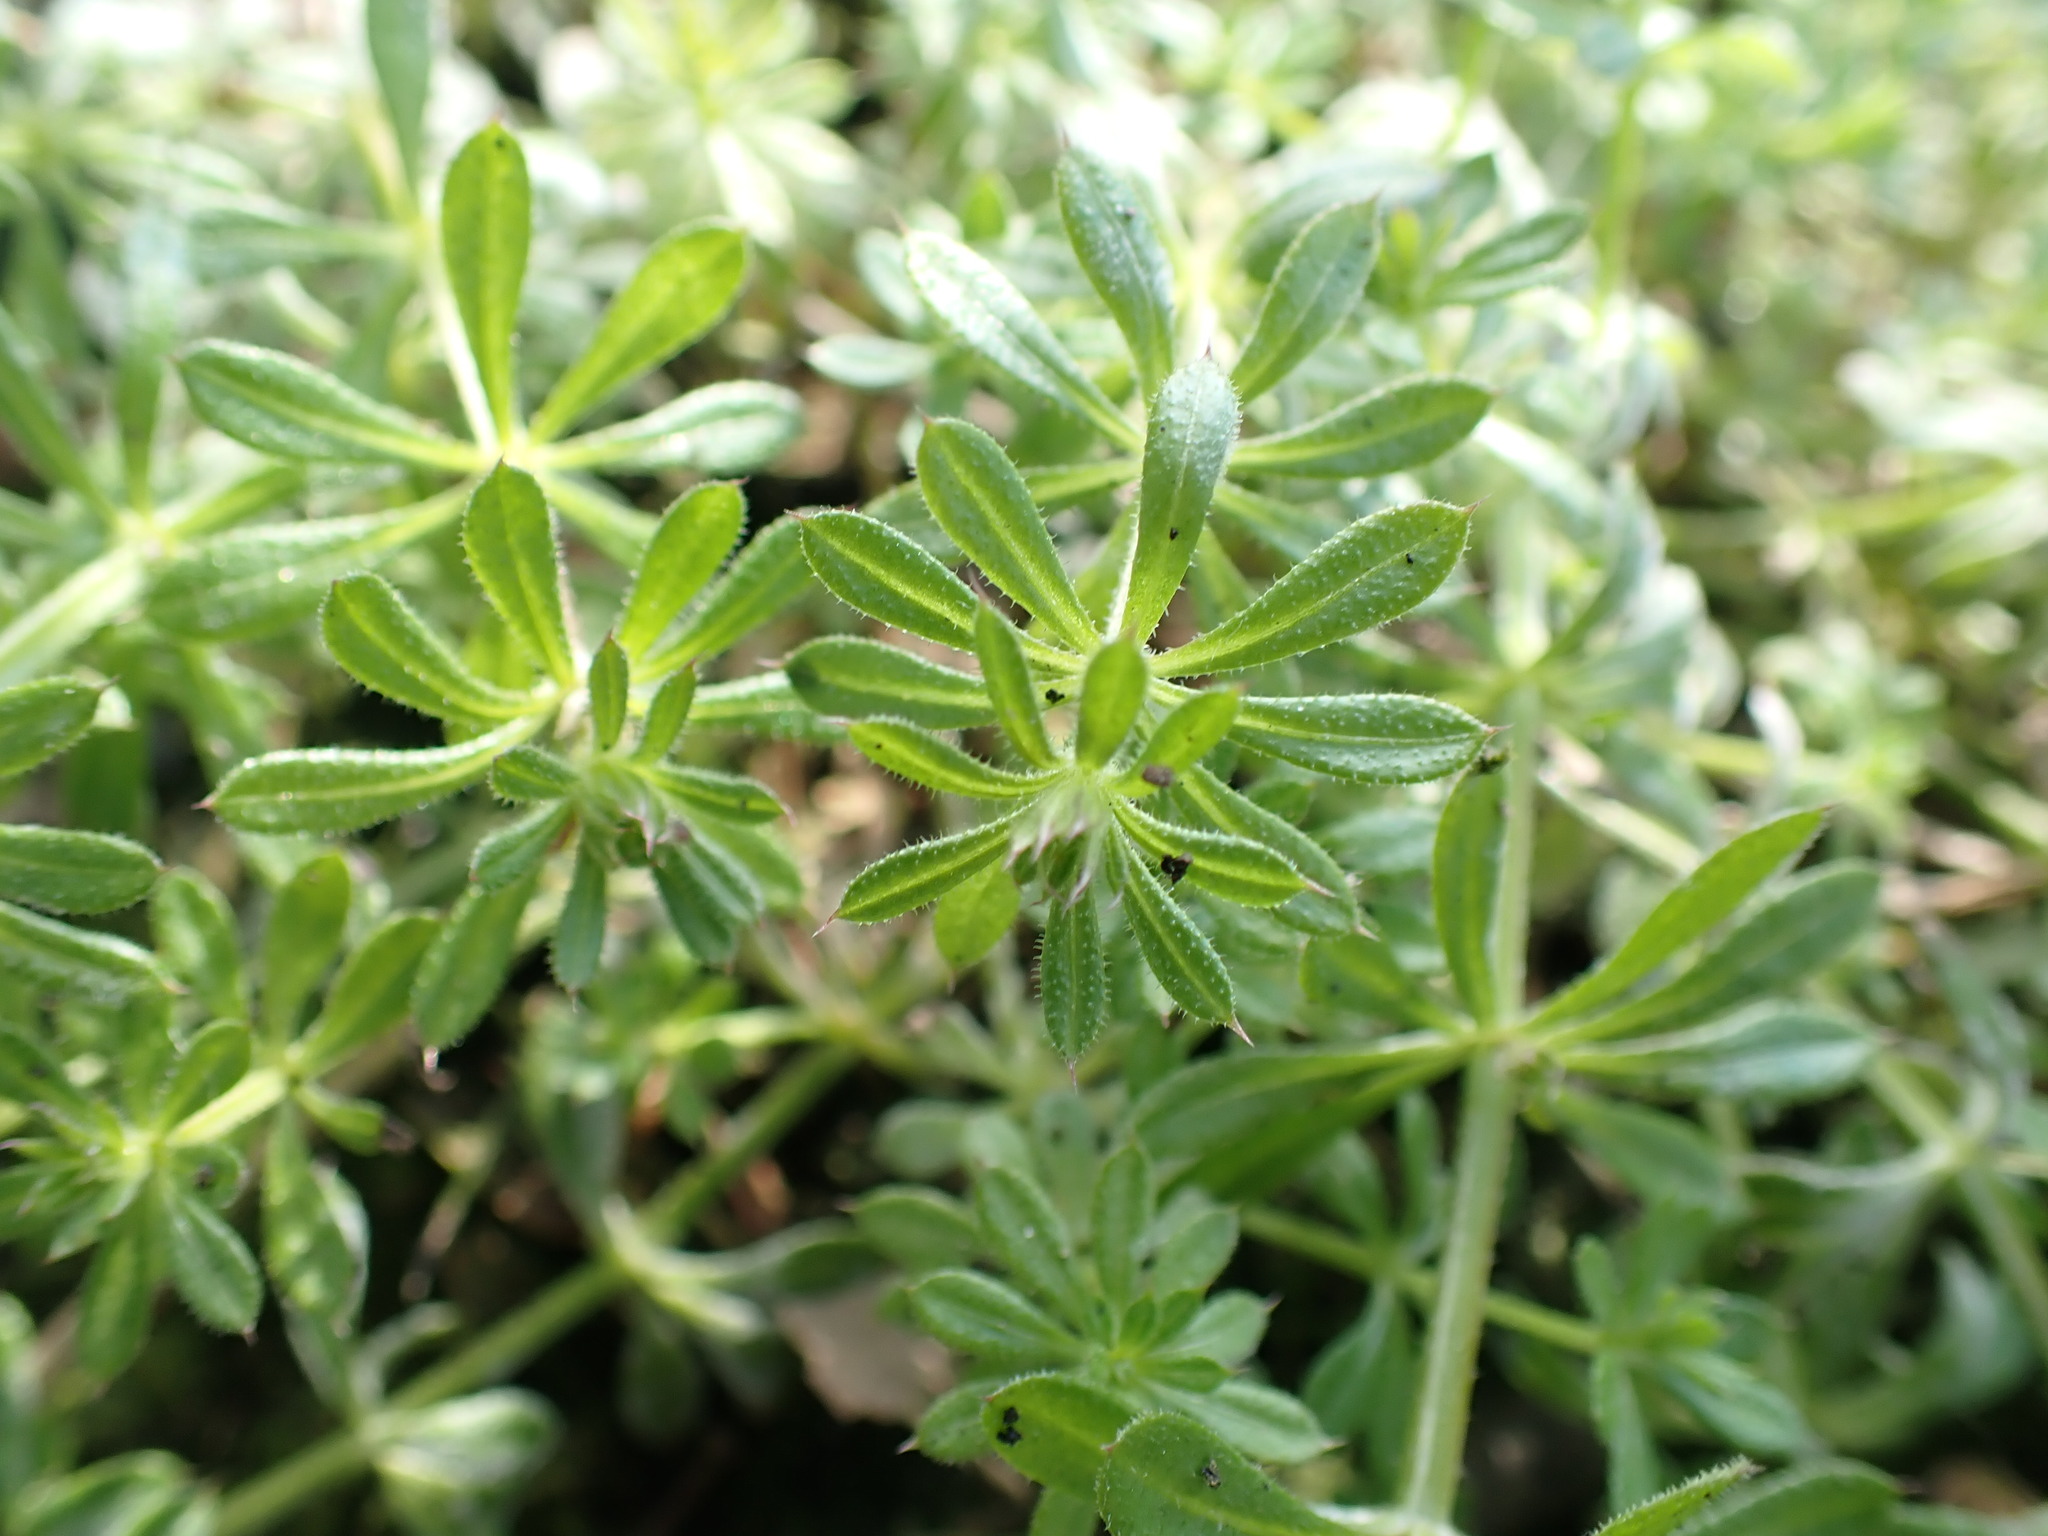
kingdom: Plantae
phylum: Tracheophyta
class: Magnoliopsida
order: Gentianales
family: Rubiaceae
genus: Galium
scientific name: Galium aparine
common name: Cleavers
